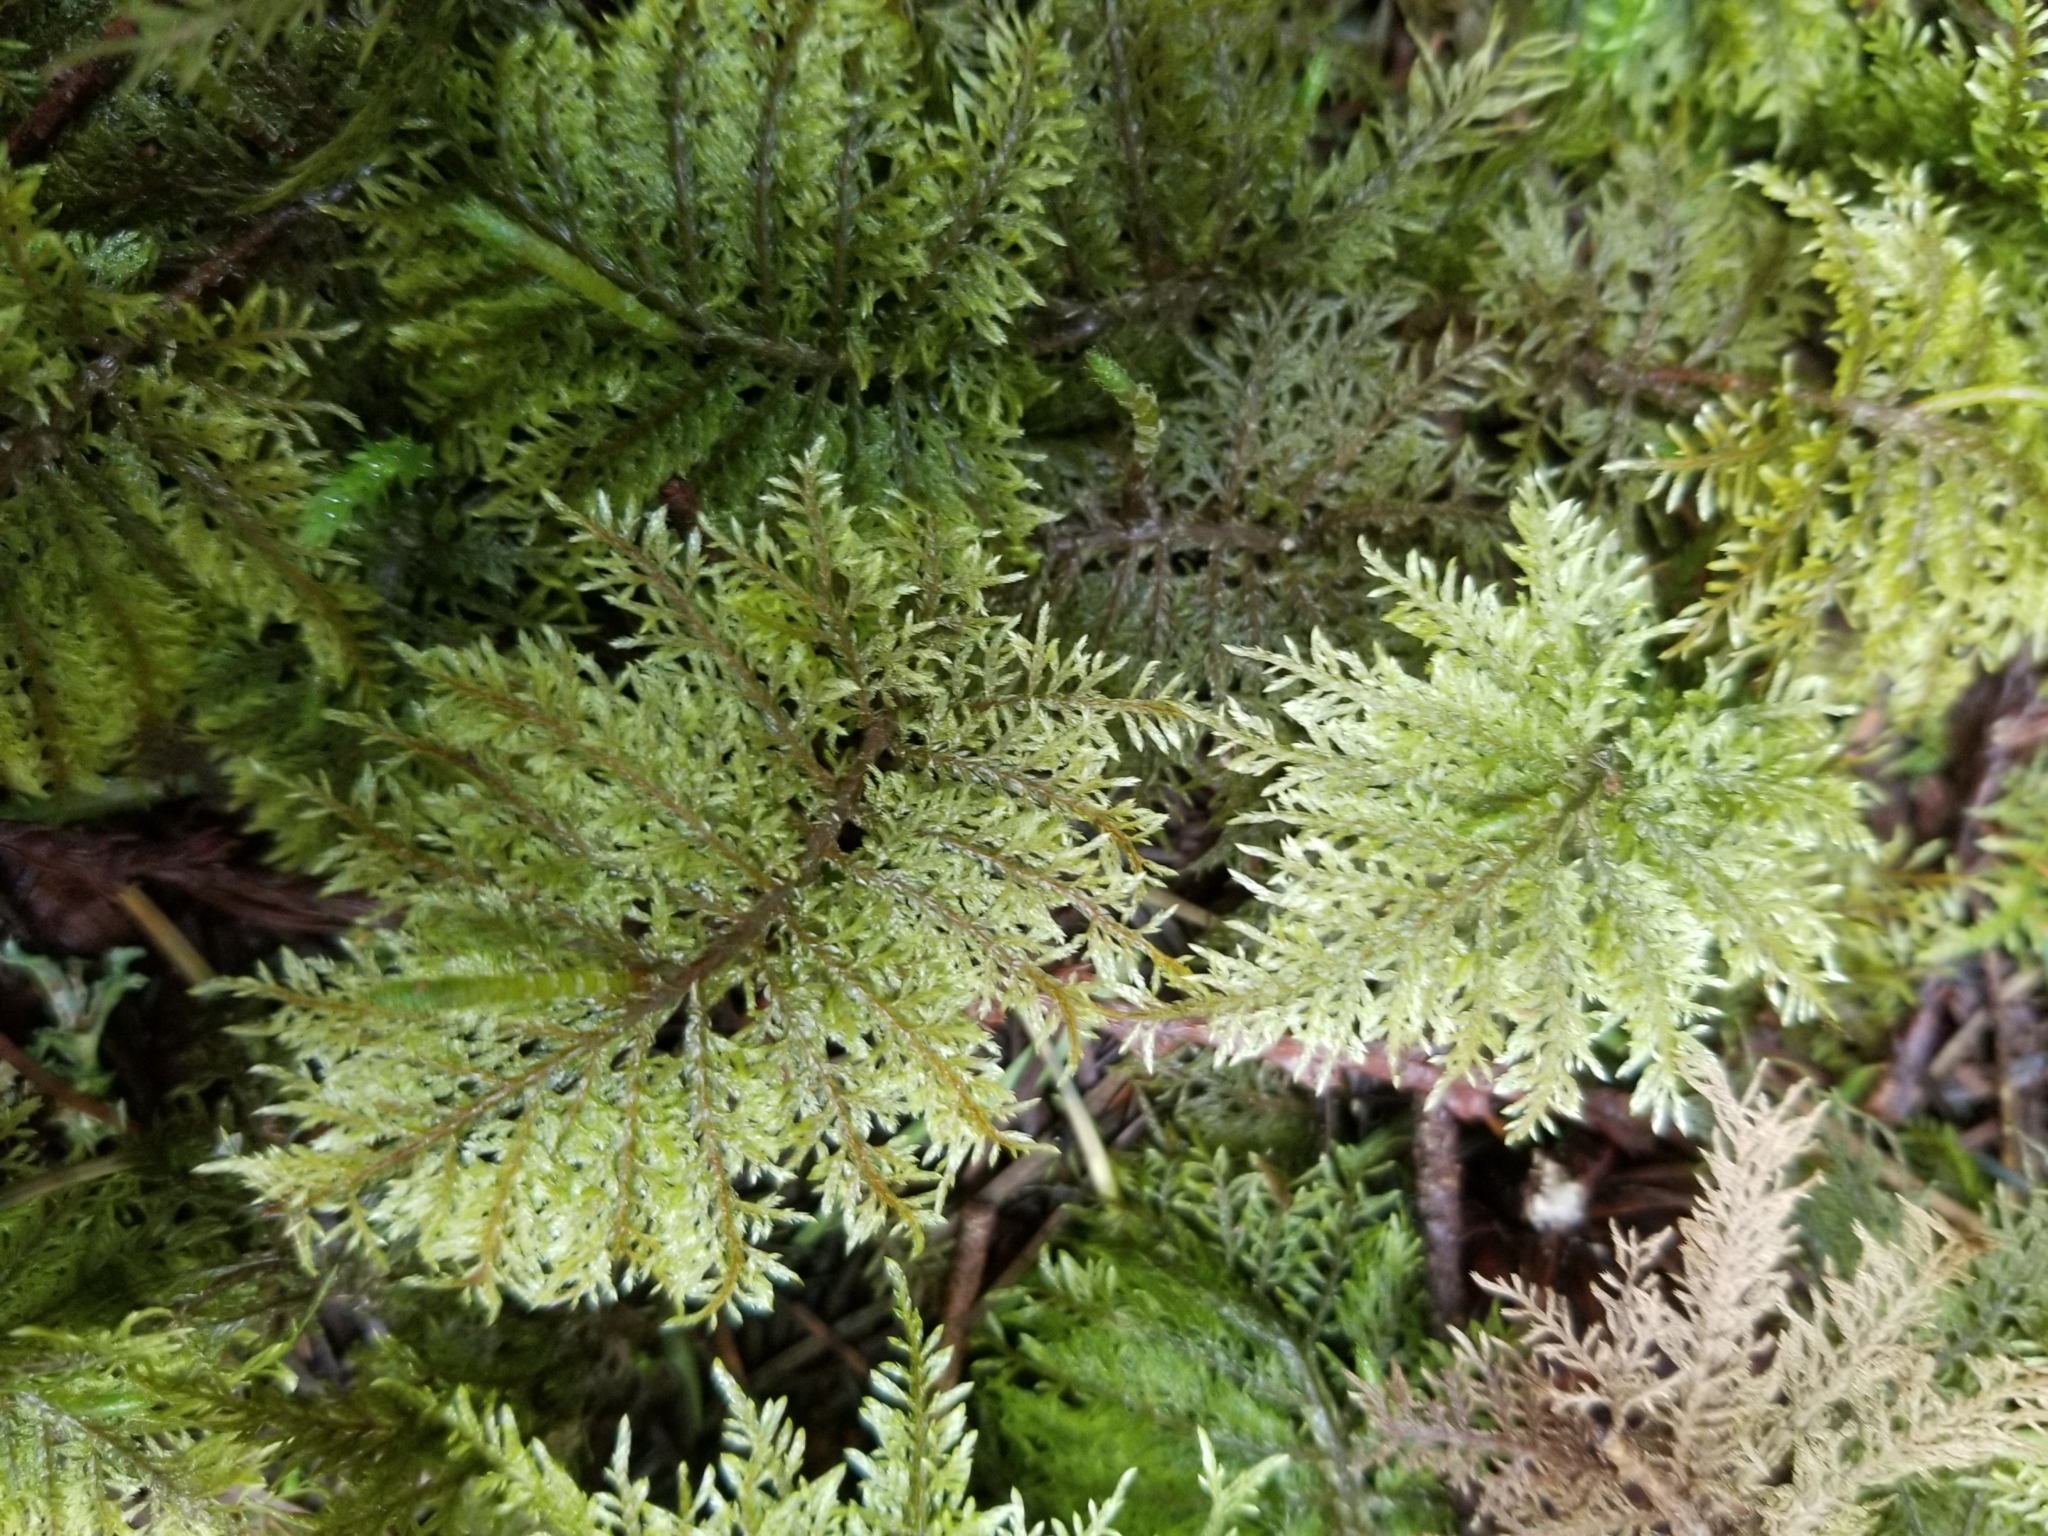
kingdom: Plantae
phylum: Bryophyta
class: Bryopsida
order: Hypnales
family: Hylocomiaceae
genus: Hylocomium
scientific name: Hylocomium splendens
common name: Stairstep moss
